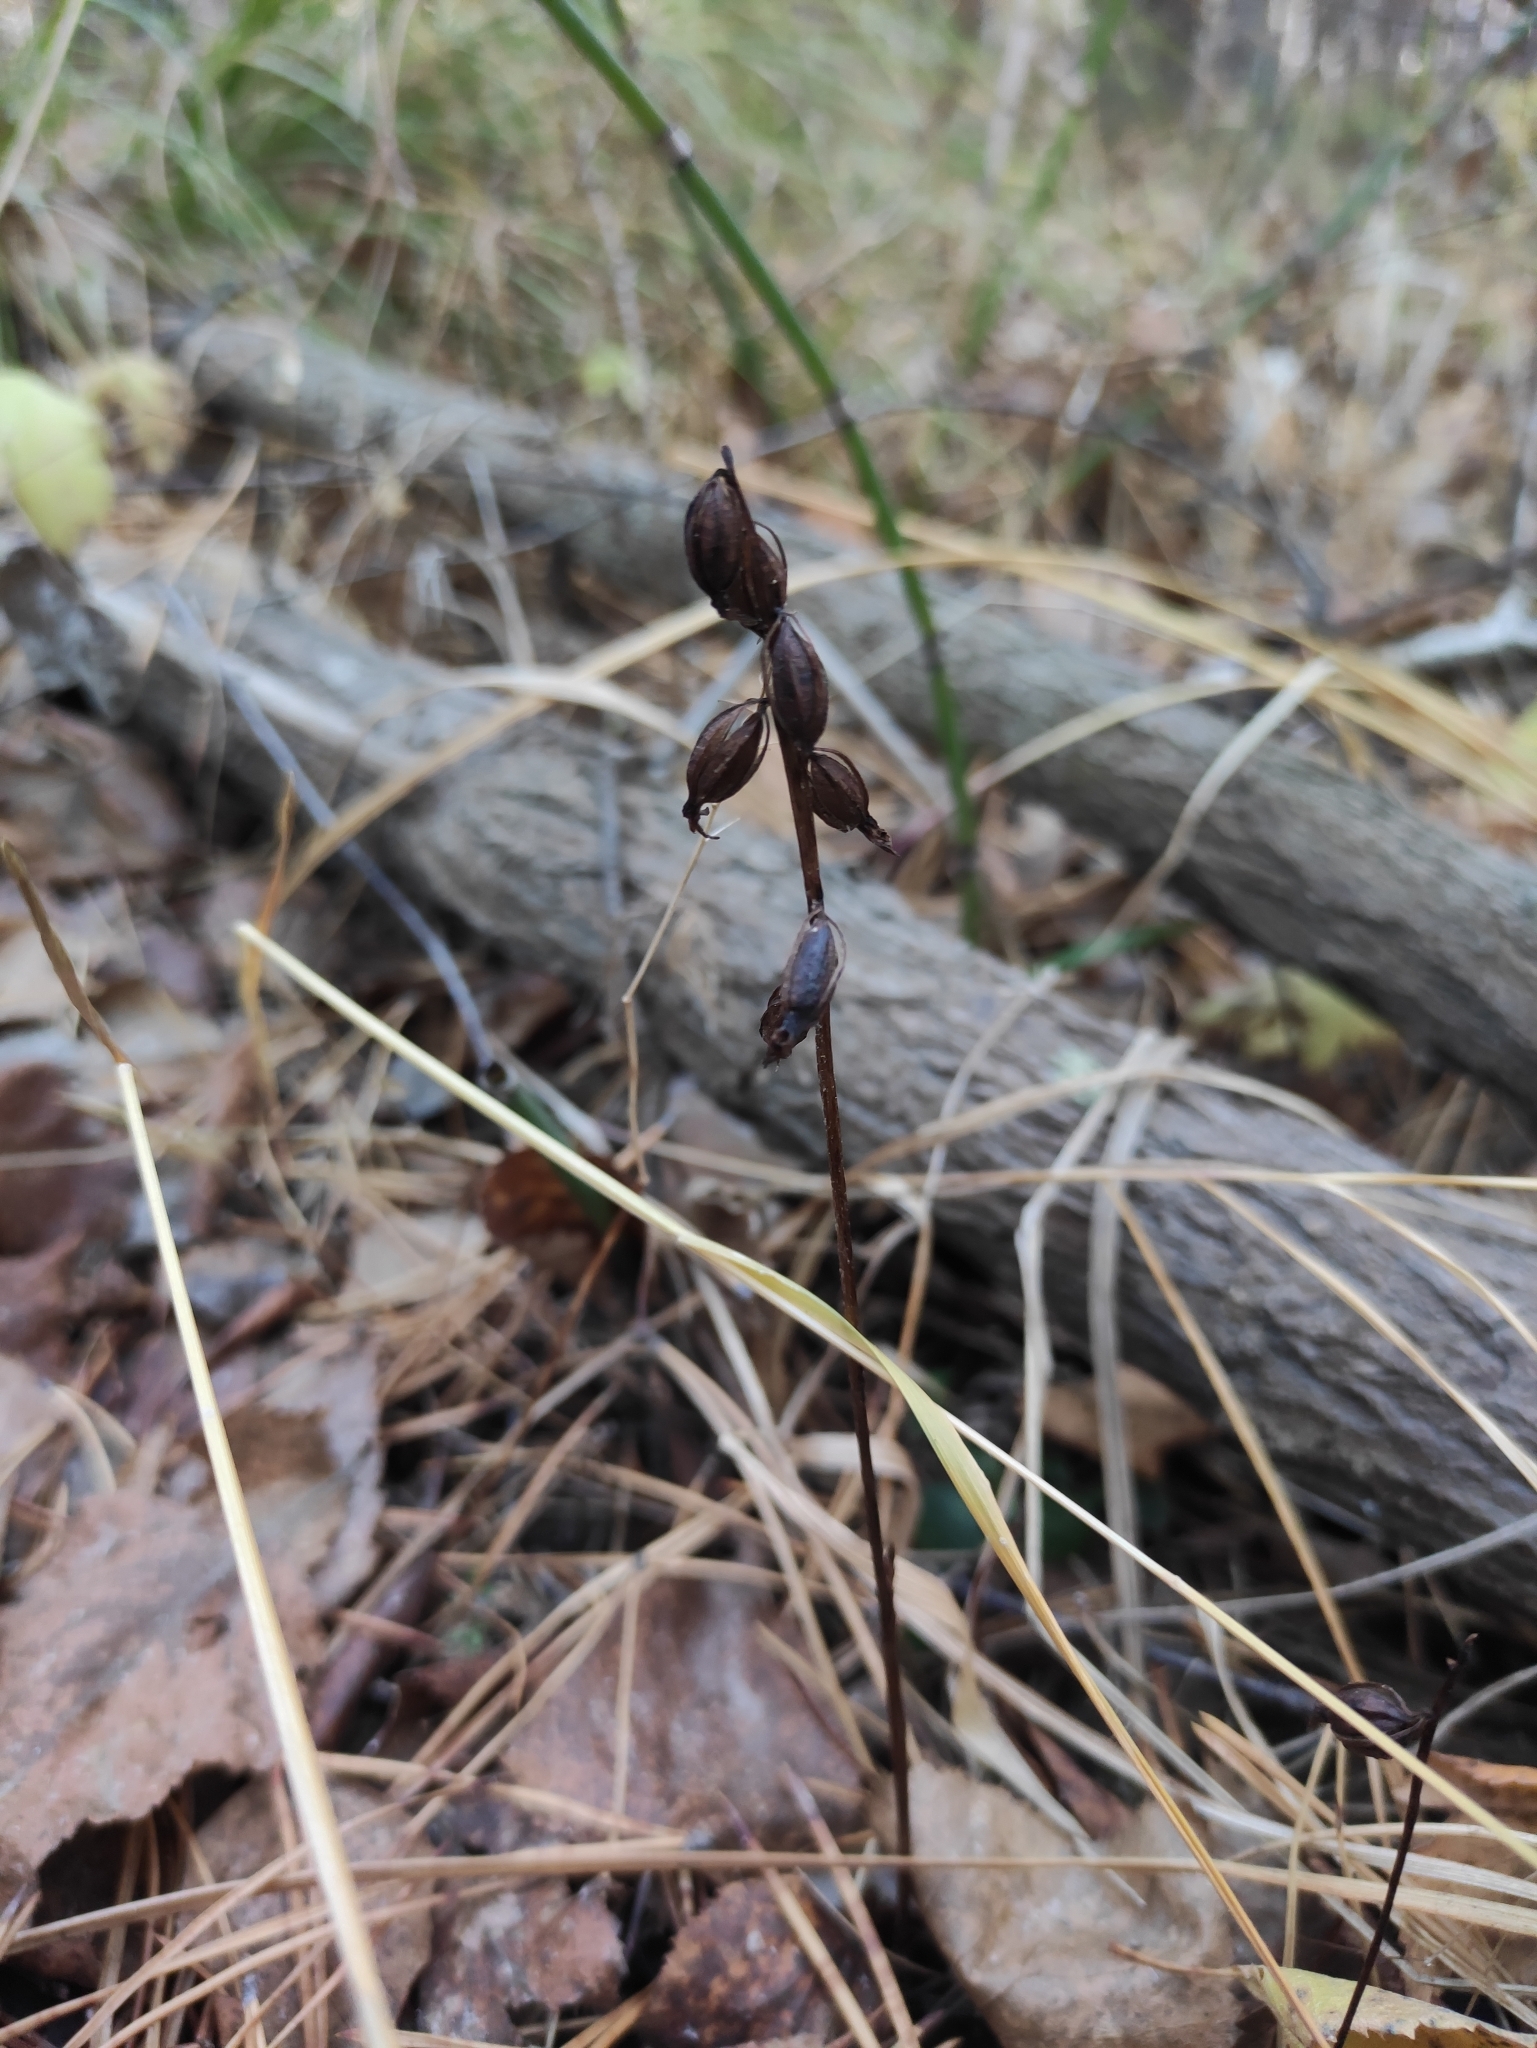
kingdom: Plantae
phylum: Tracheophyta
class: Liliopsida
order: Asparagales
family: Orchidaceae
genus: Corallorhiza
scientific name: Corallorhiza trifida
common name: Yellow coralroot
